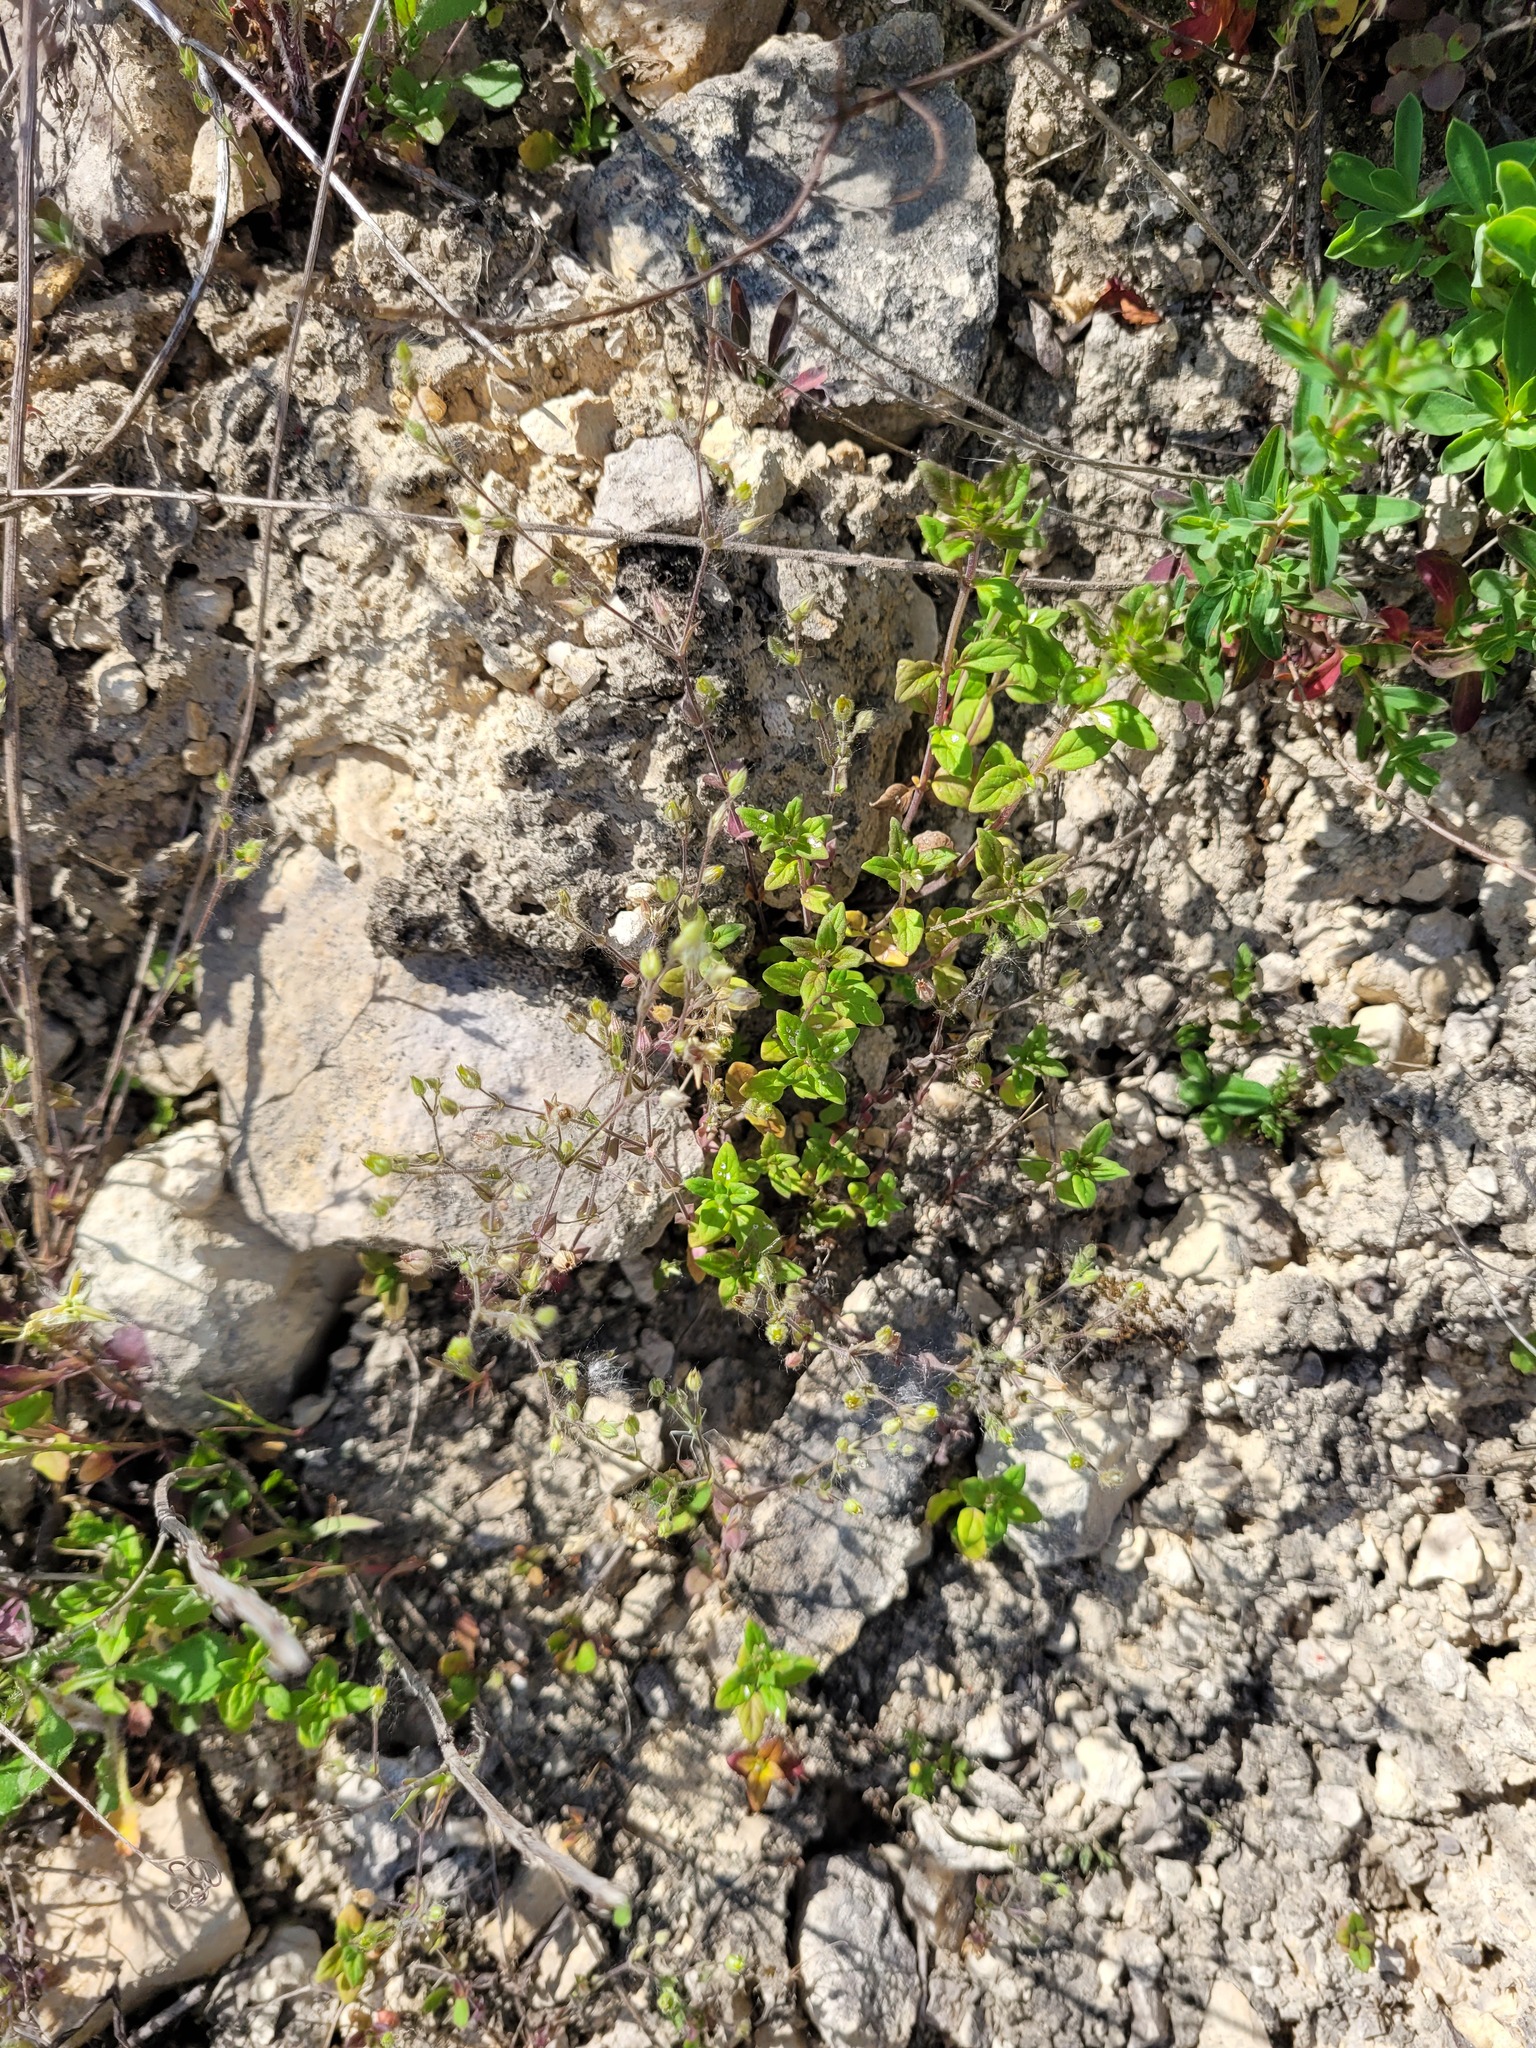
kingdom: Plantae
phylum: Tracheophyta
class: Magnoliopsida
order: Caryophyllales
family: Caryophyllaceae
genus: Arenaria
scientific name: Arenaria serpyllifolia
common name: Thyme-leaved sandwort
